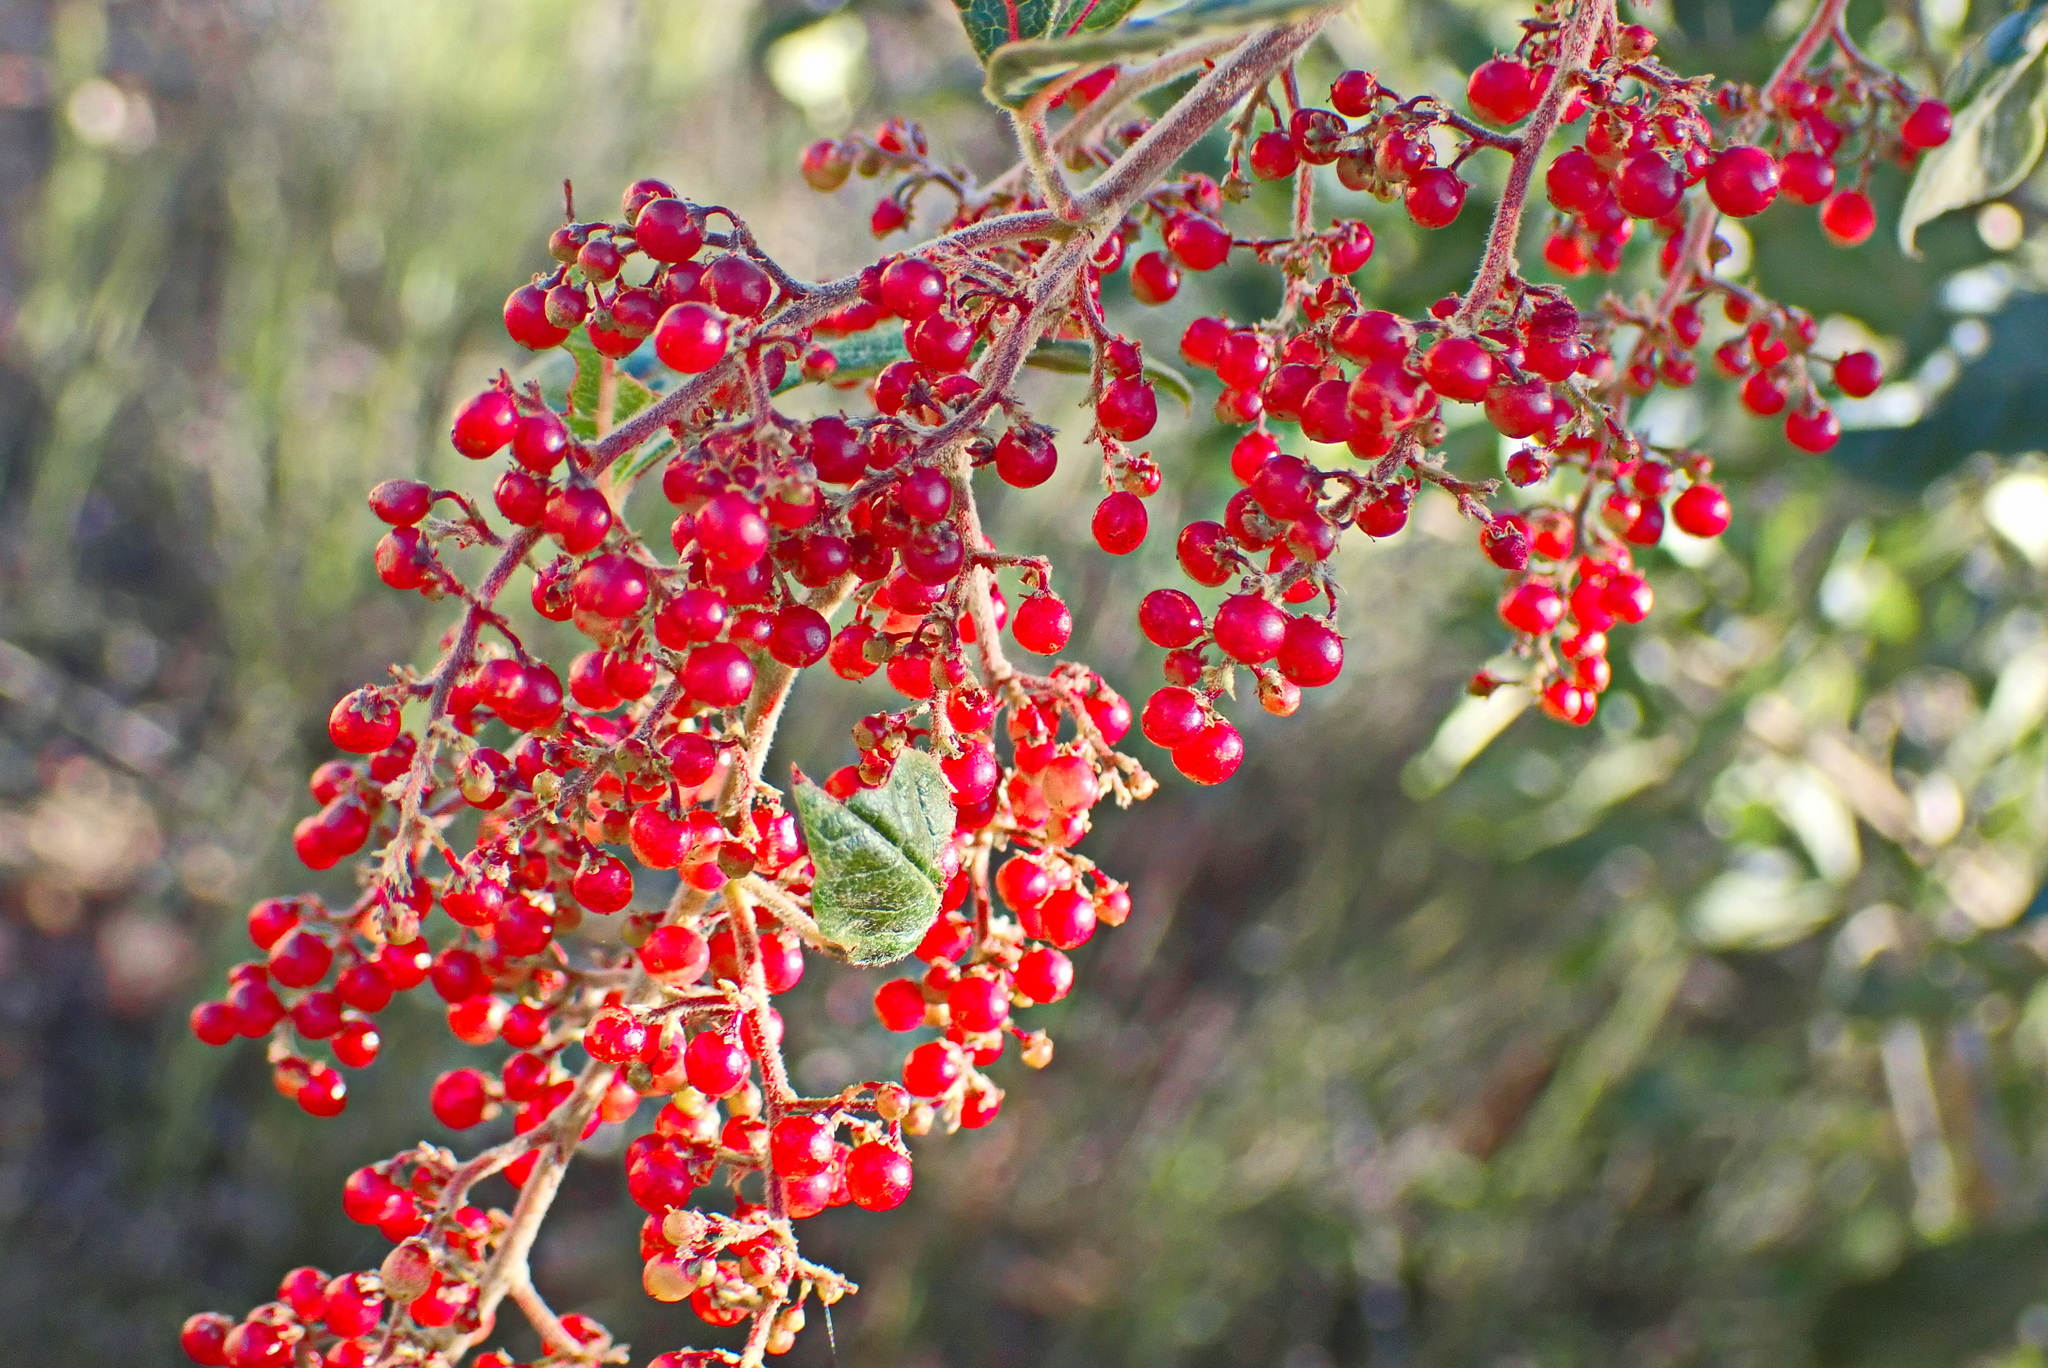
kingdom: Plantae
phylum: Tracheophyta
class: Magnoliopsida
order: Sapindales
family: Anacardiaceae
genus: Searsia
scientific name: Searsia tomentosa
